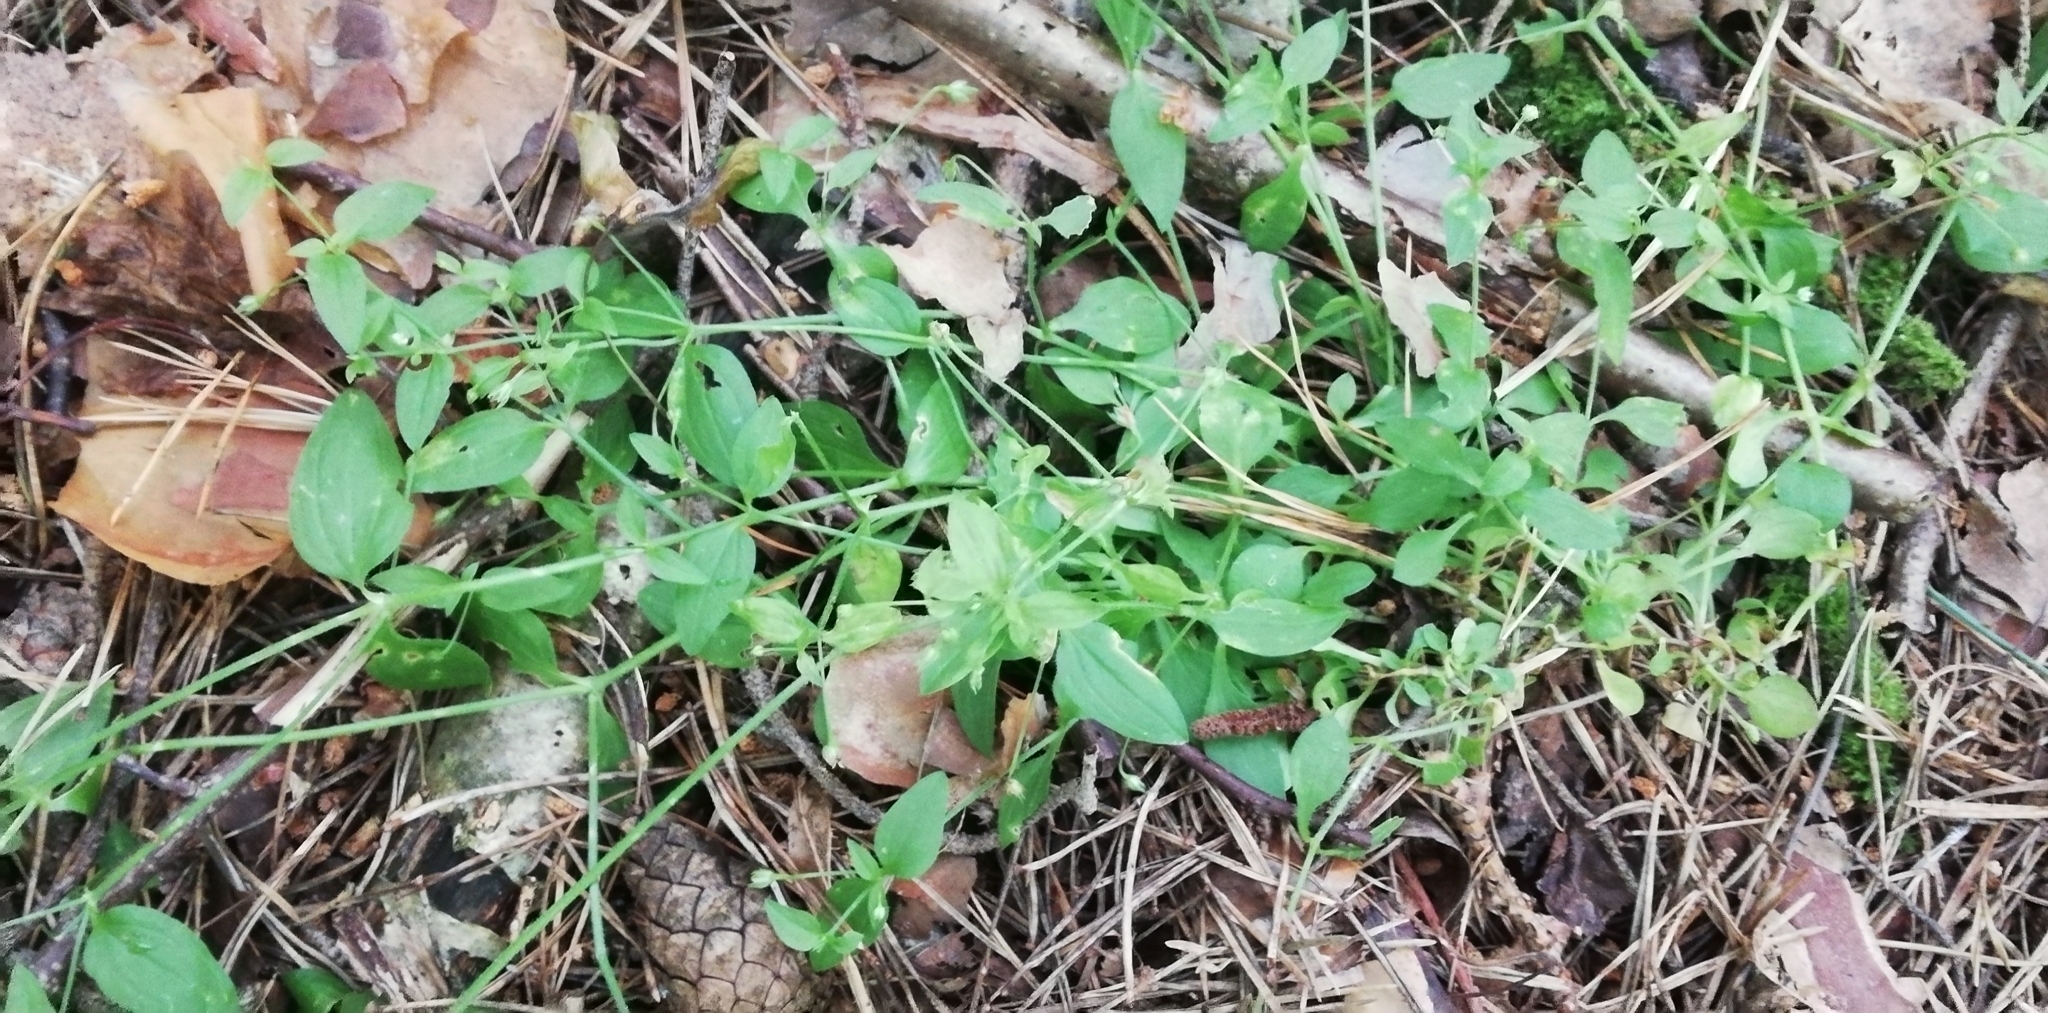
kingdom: Plantae
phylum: Tracheophyta
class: Magnoliopsida
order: Caryophyllales
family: Caryophyllaceae
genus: Moehringia
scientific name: Moehringia trinervia
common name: Three-nerved sandwort
